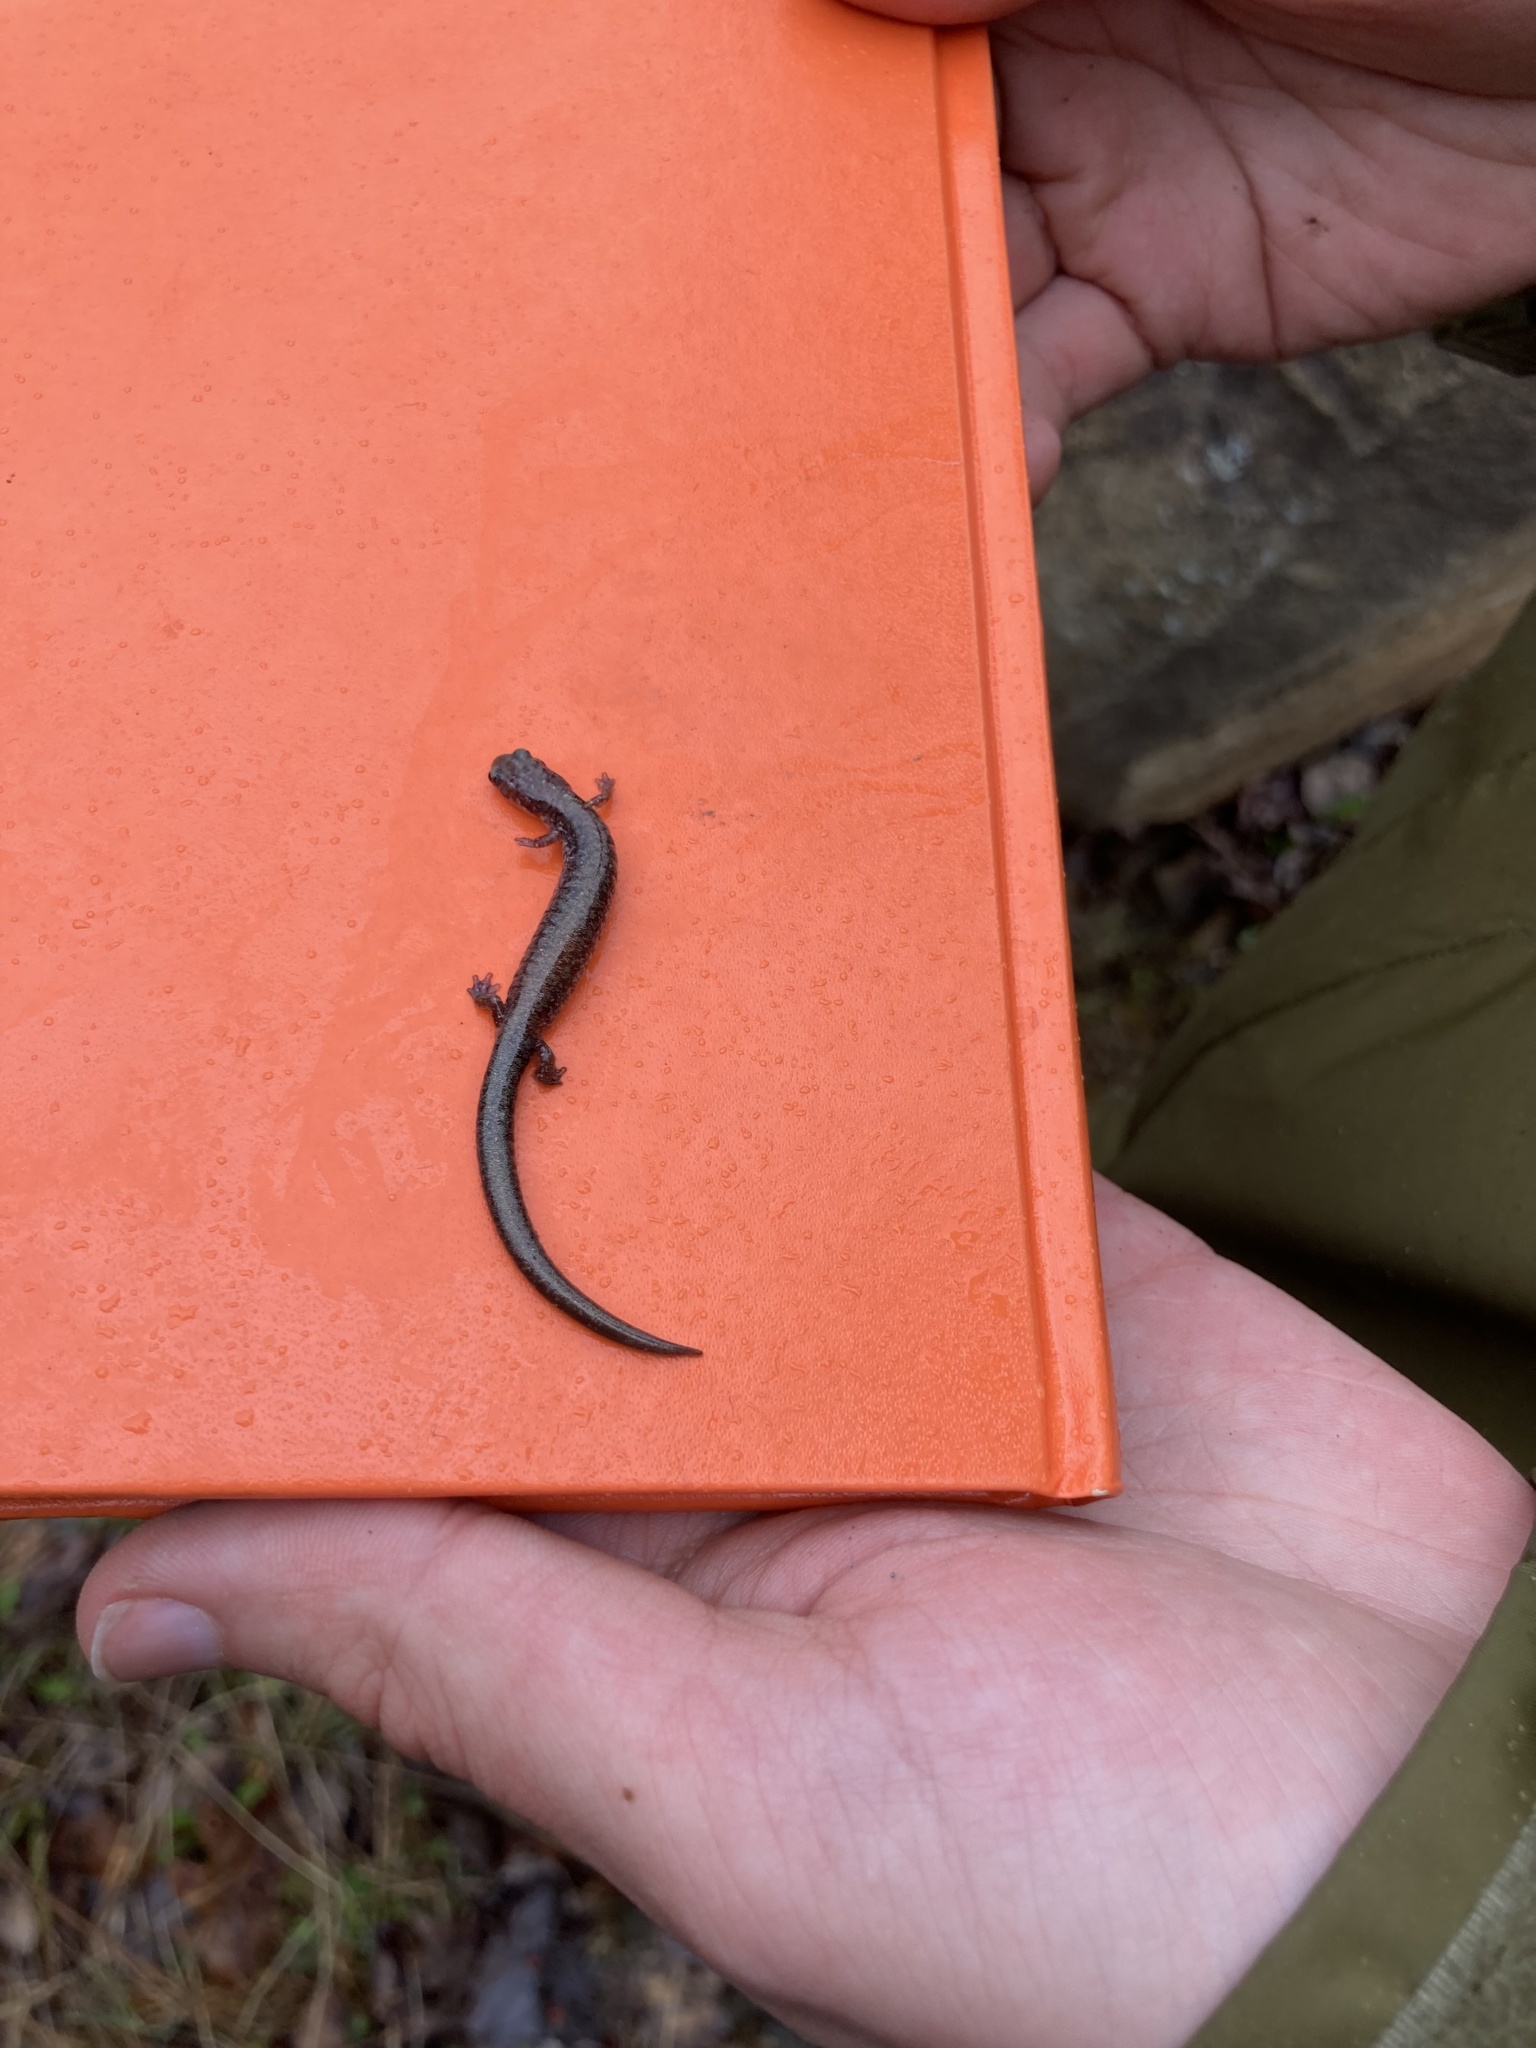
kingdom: Animalia
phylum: Chordata
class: Amphibia
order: Caudata
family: Plethodontidae
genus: Plethodon
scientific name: Plethodon cinereus
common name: Redback salamander
